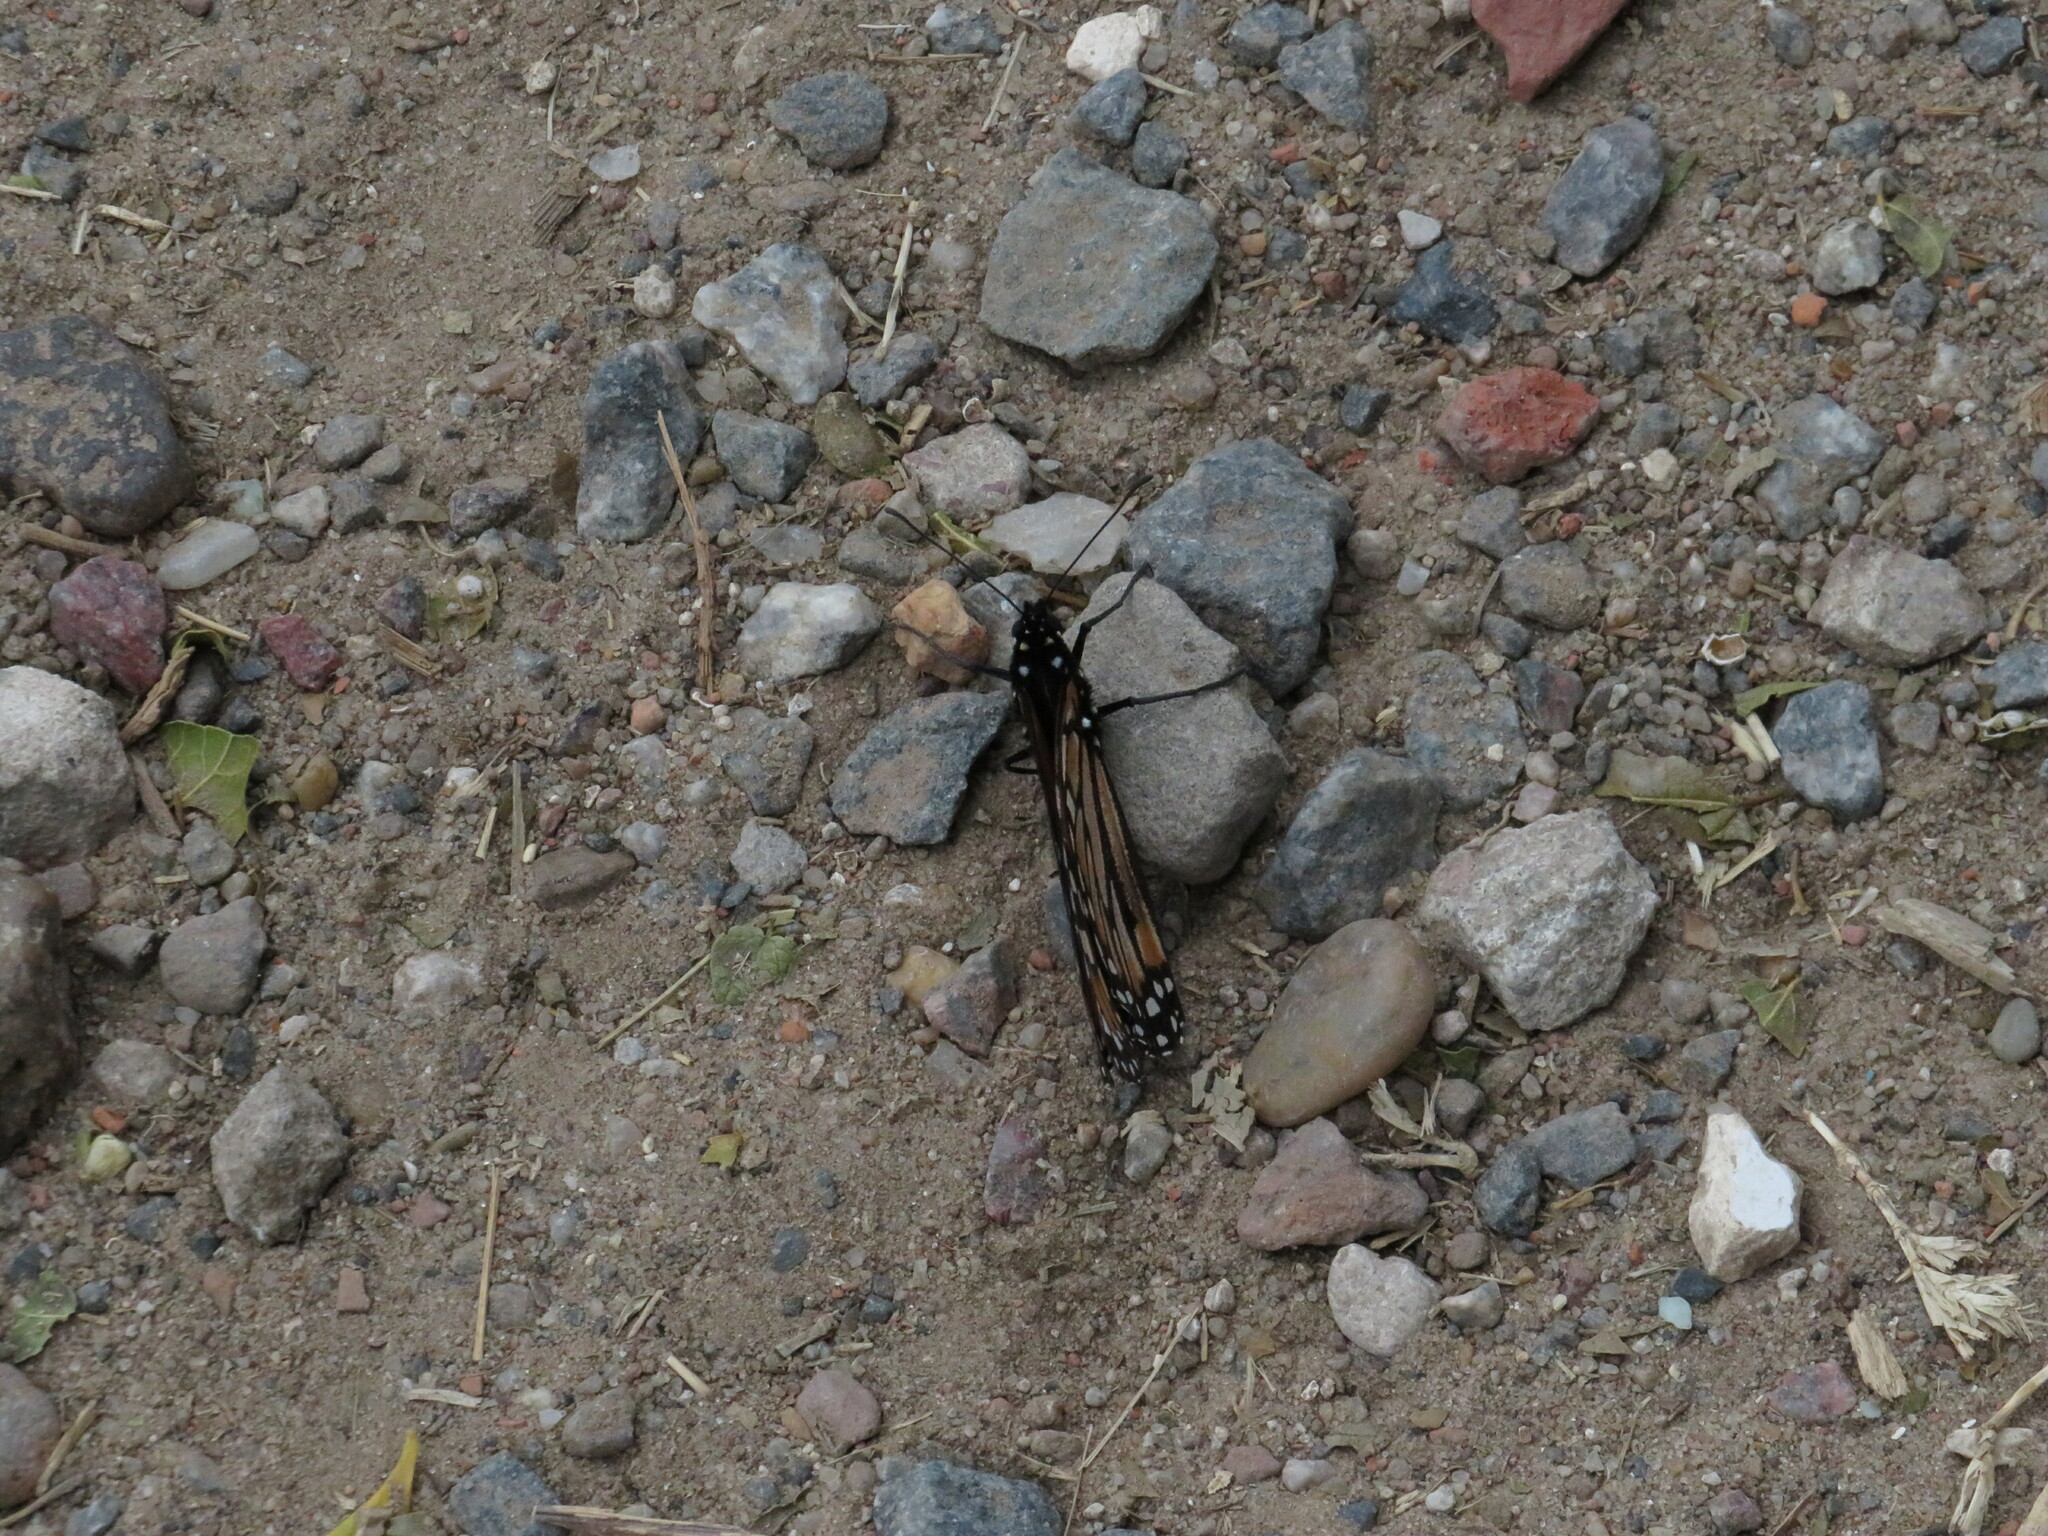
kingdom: Animalia
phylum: Arthropoda
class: Insecta
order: Lepidoptera
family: Nymphalidae
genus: Danaus
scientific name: Danaus erippus
